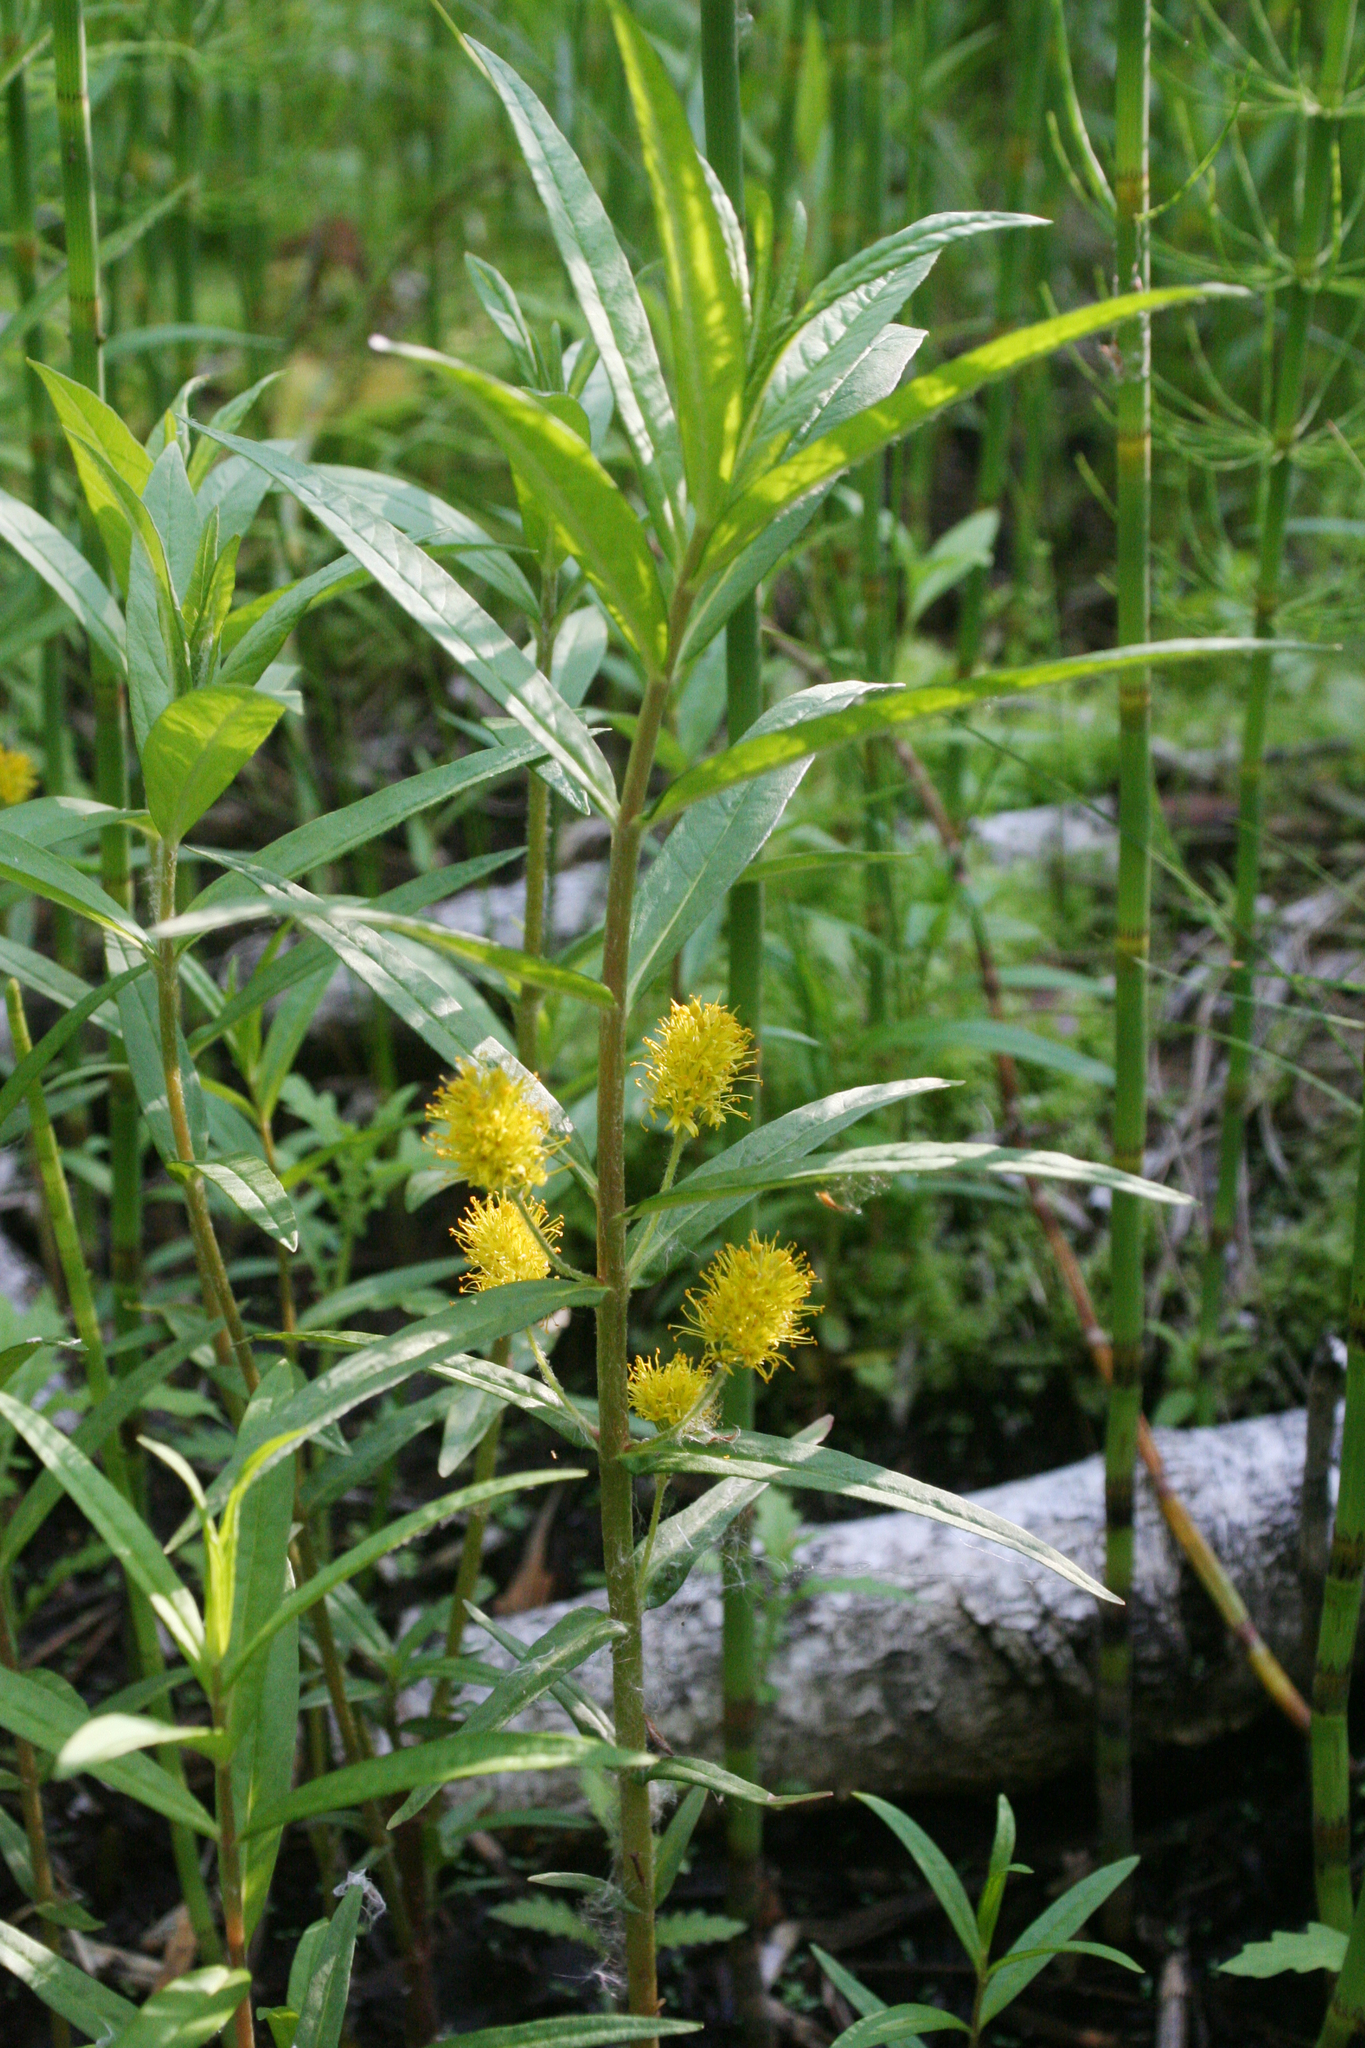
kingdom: Plantae
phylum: Tracheophyta
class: Magnoliopsida
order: Ericales
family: Primulaceae
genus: Lysimachia
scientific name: Lysimachia thyrsiflora
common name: Tufted loosestrife
